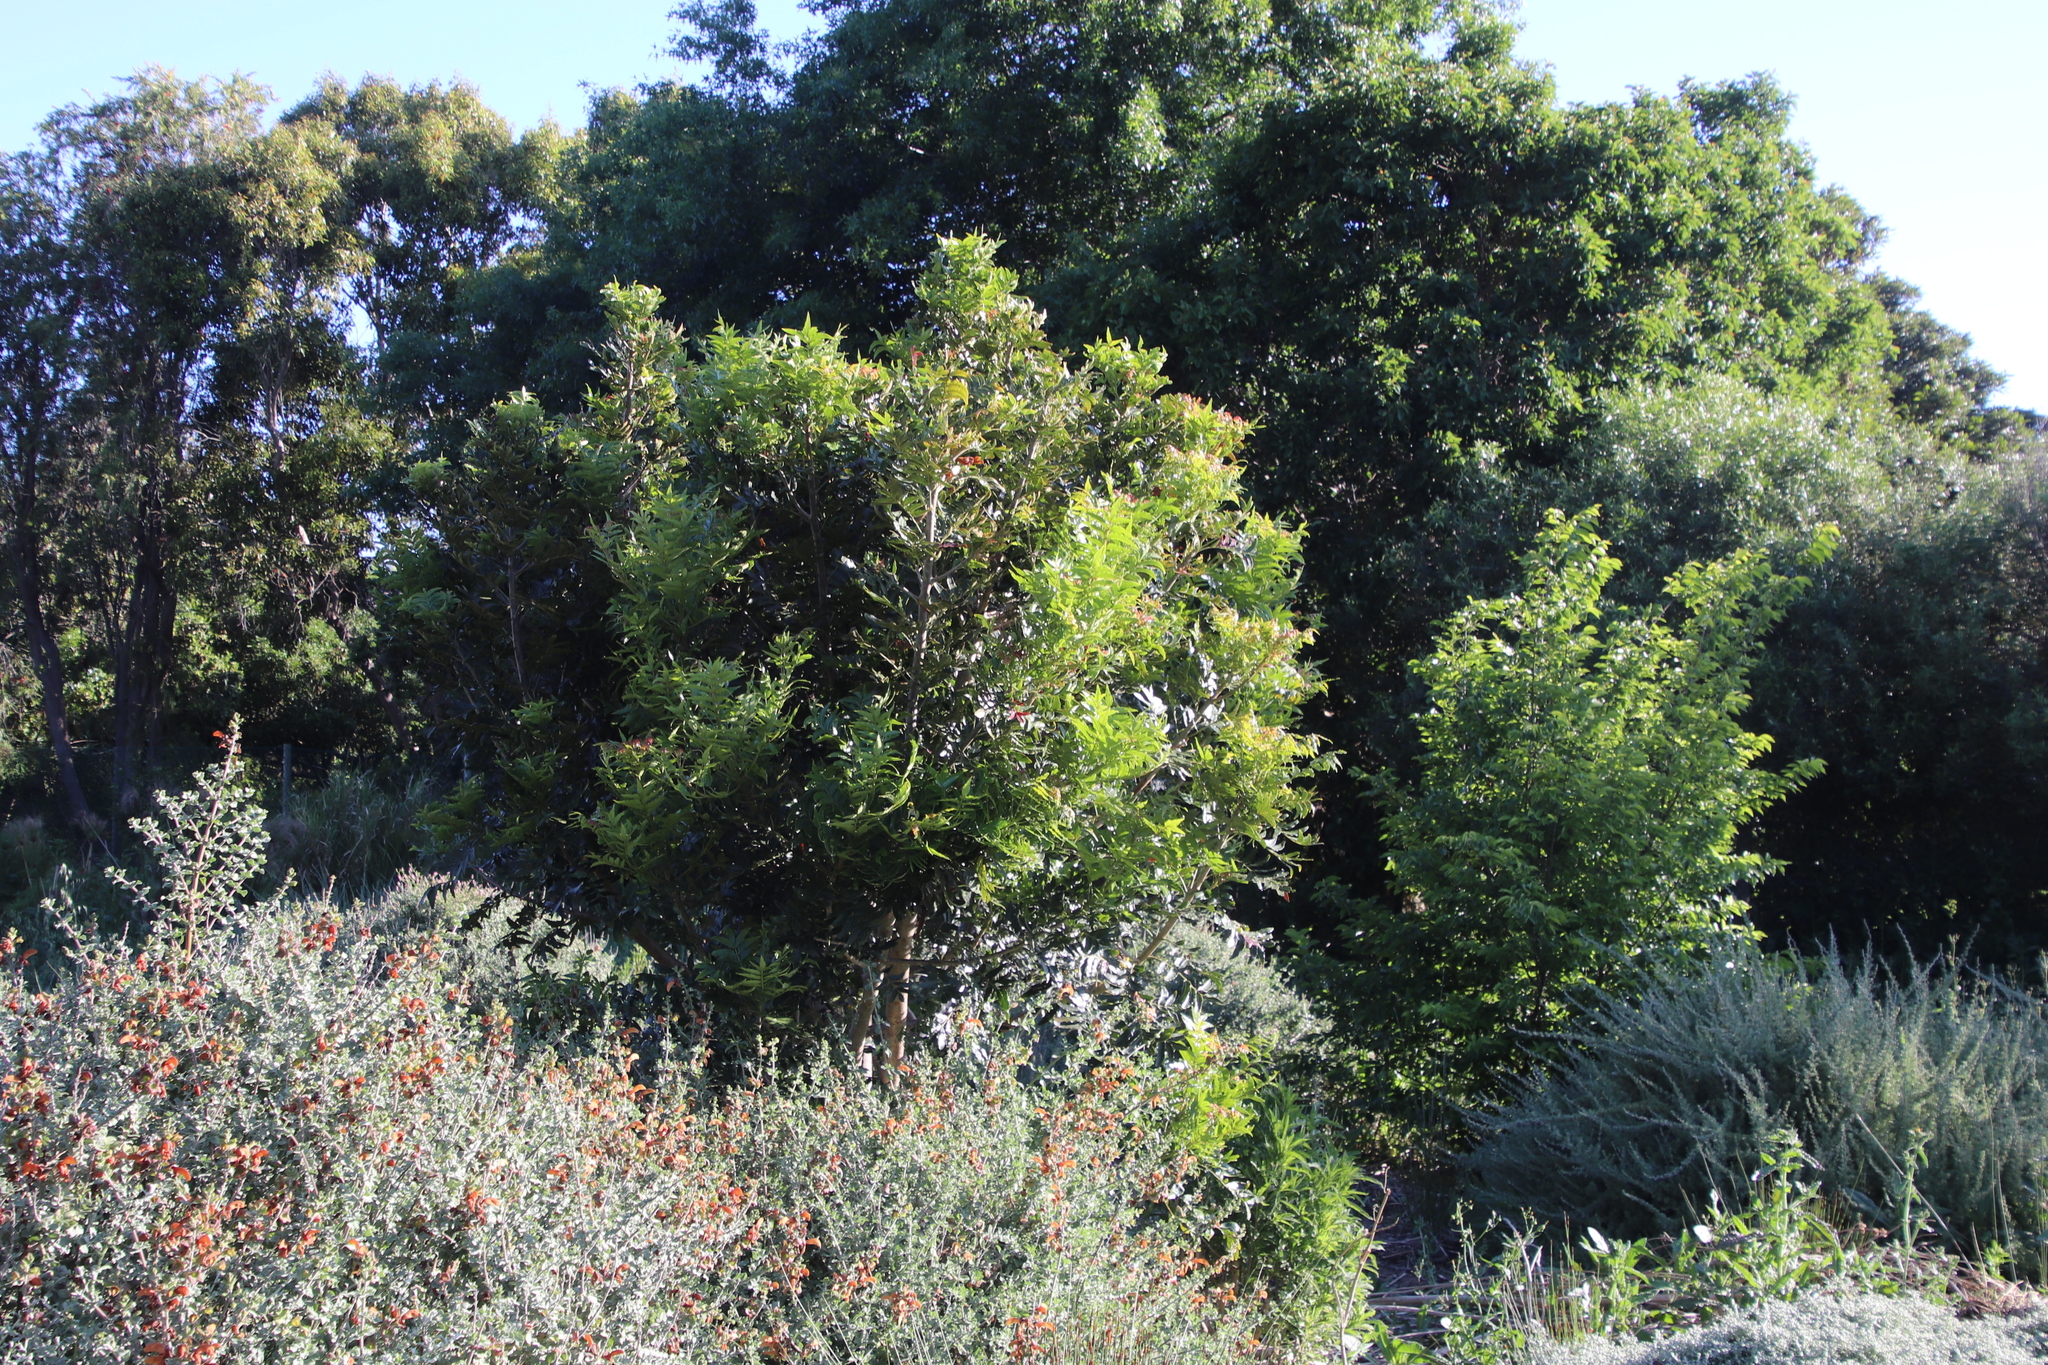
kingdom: Plantae
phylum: Tracheophyta
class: Magnoliopsida
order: Sapindales
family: Anacardiaceae
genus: Harpephyllum
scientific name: Harpephyllum caffrum
